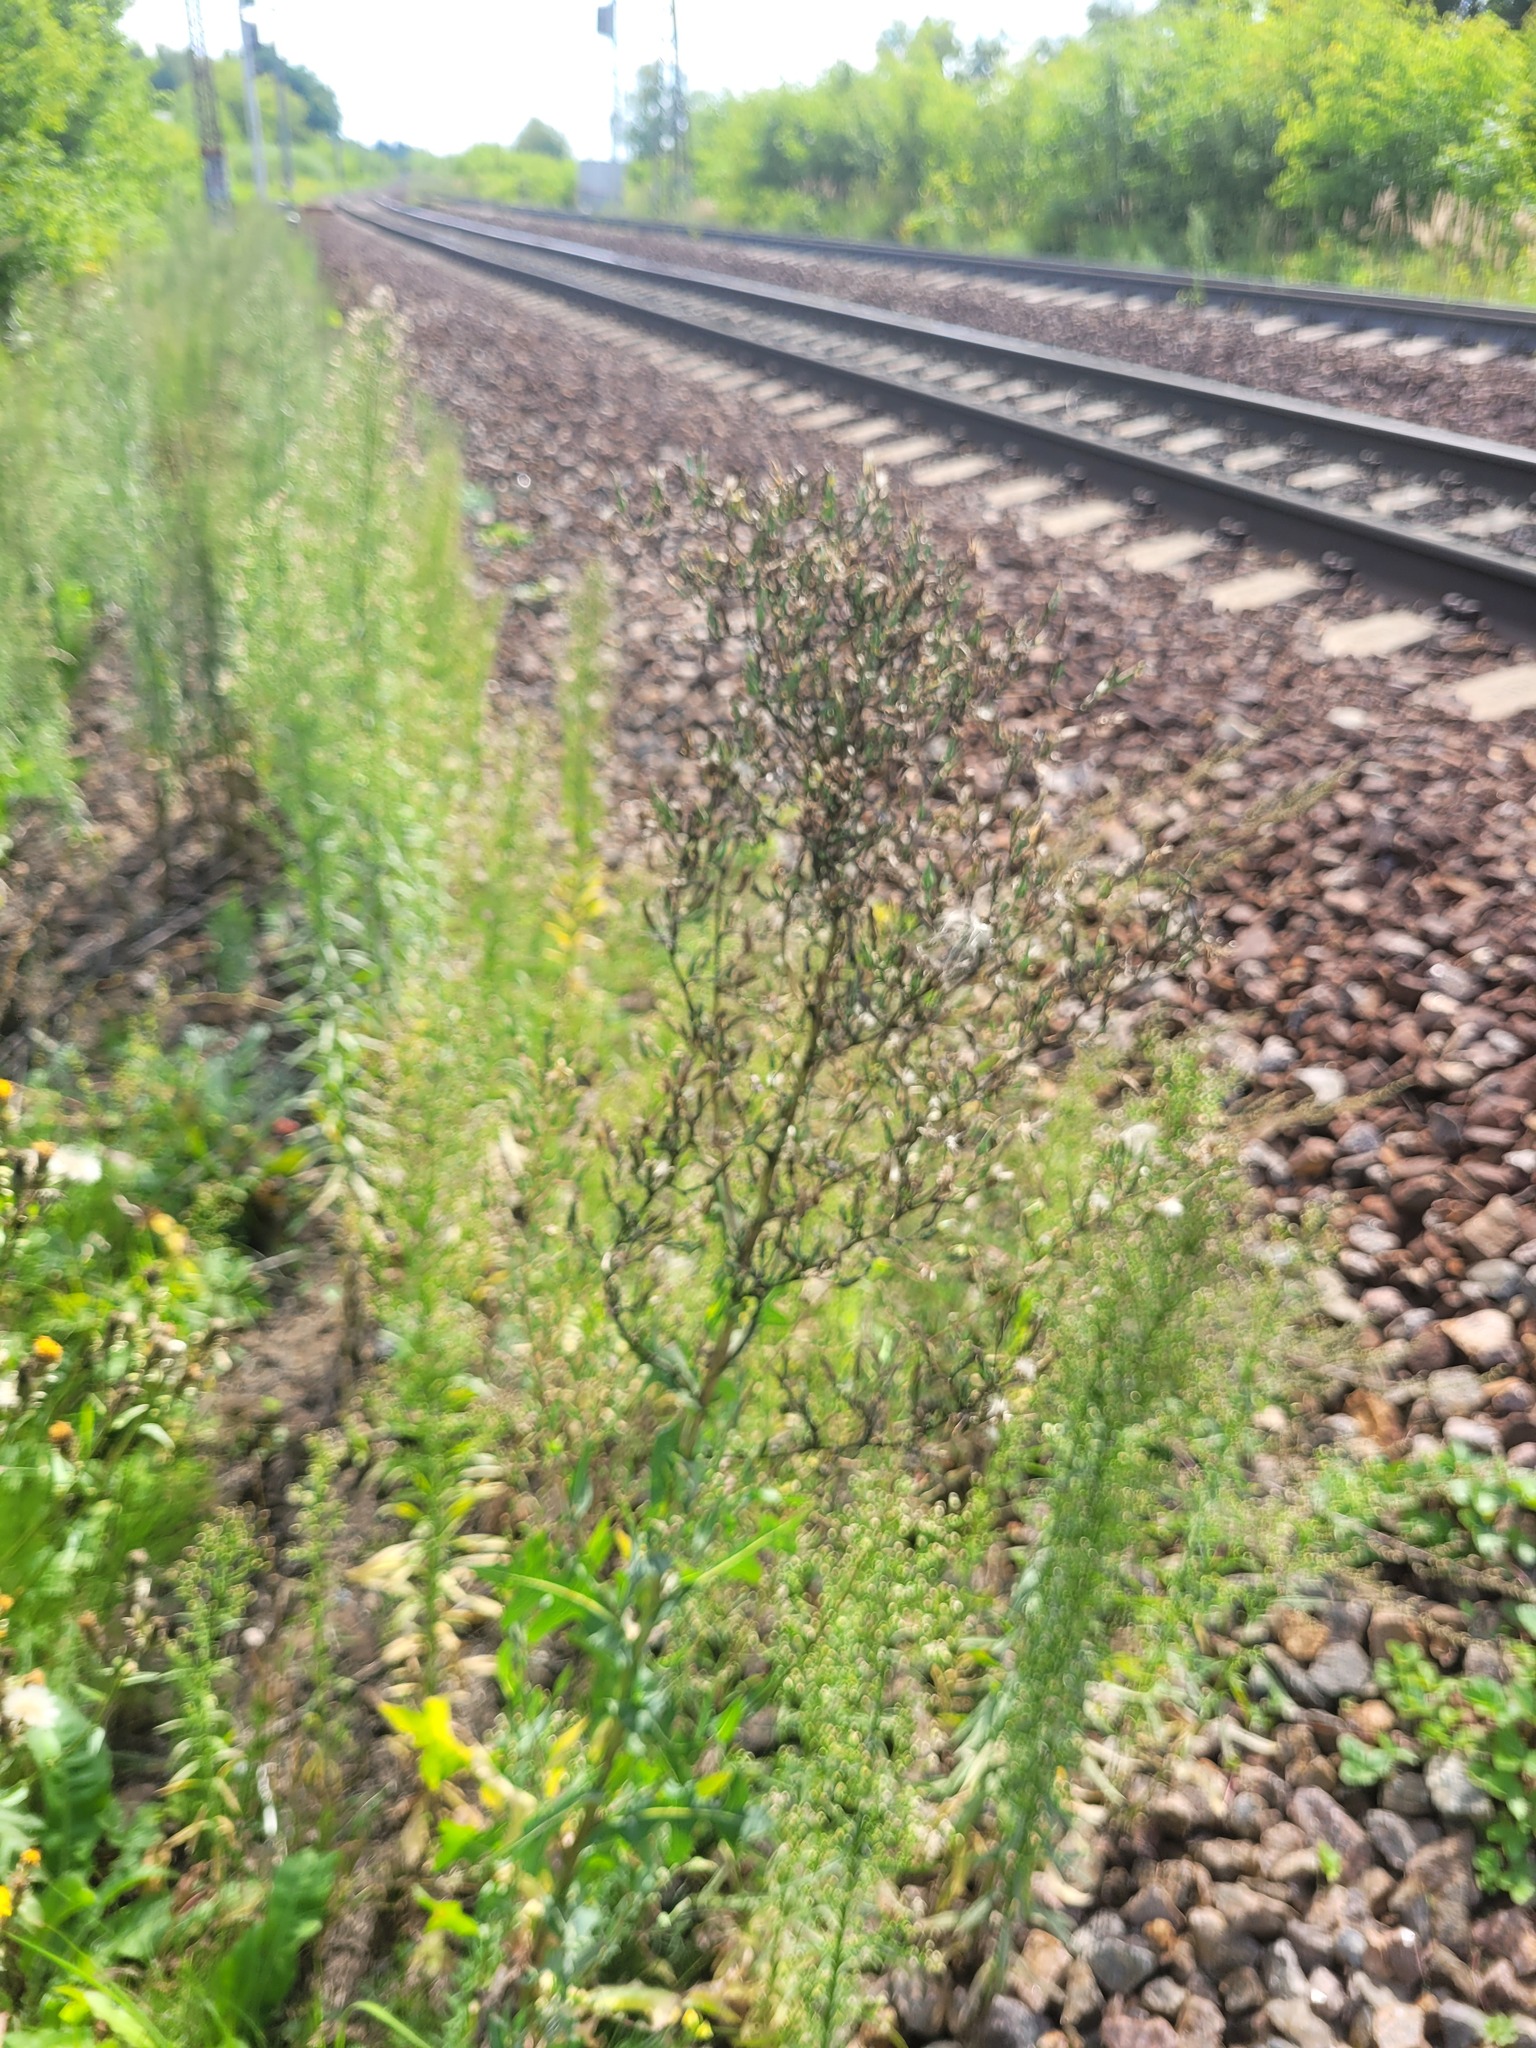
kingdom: Plantae
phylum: Tracheophyta
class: Magnoliopsida
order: Asterales
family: Asteraceae
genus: Lactuca
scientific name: Lactuca serriola
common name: Prickly lettuce
